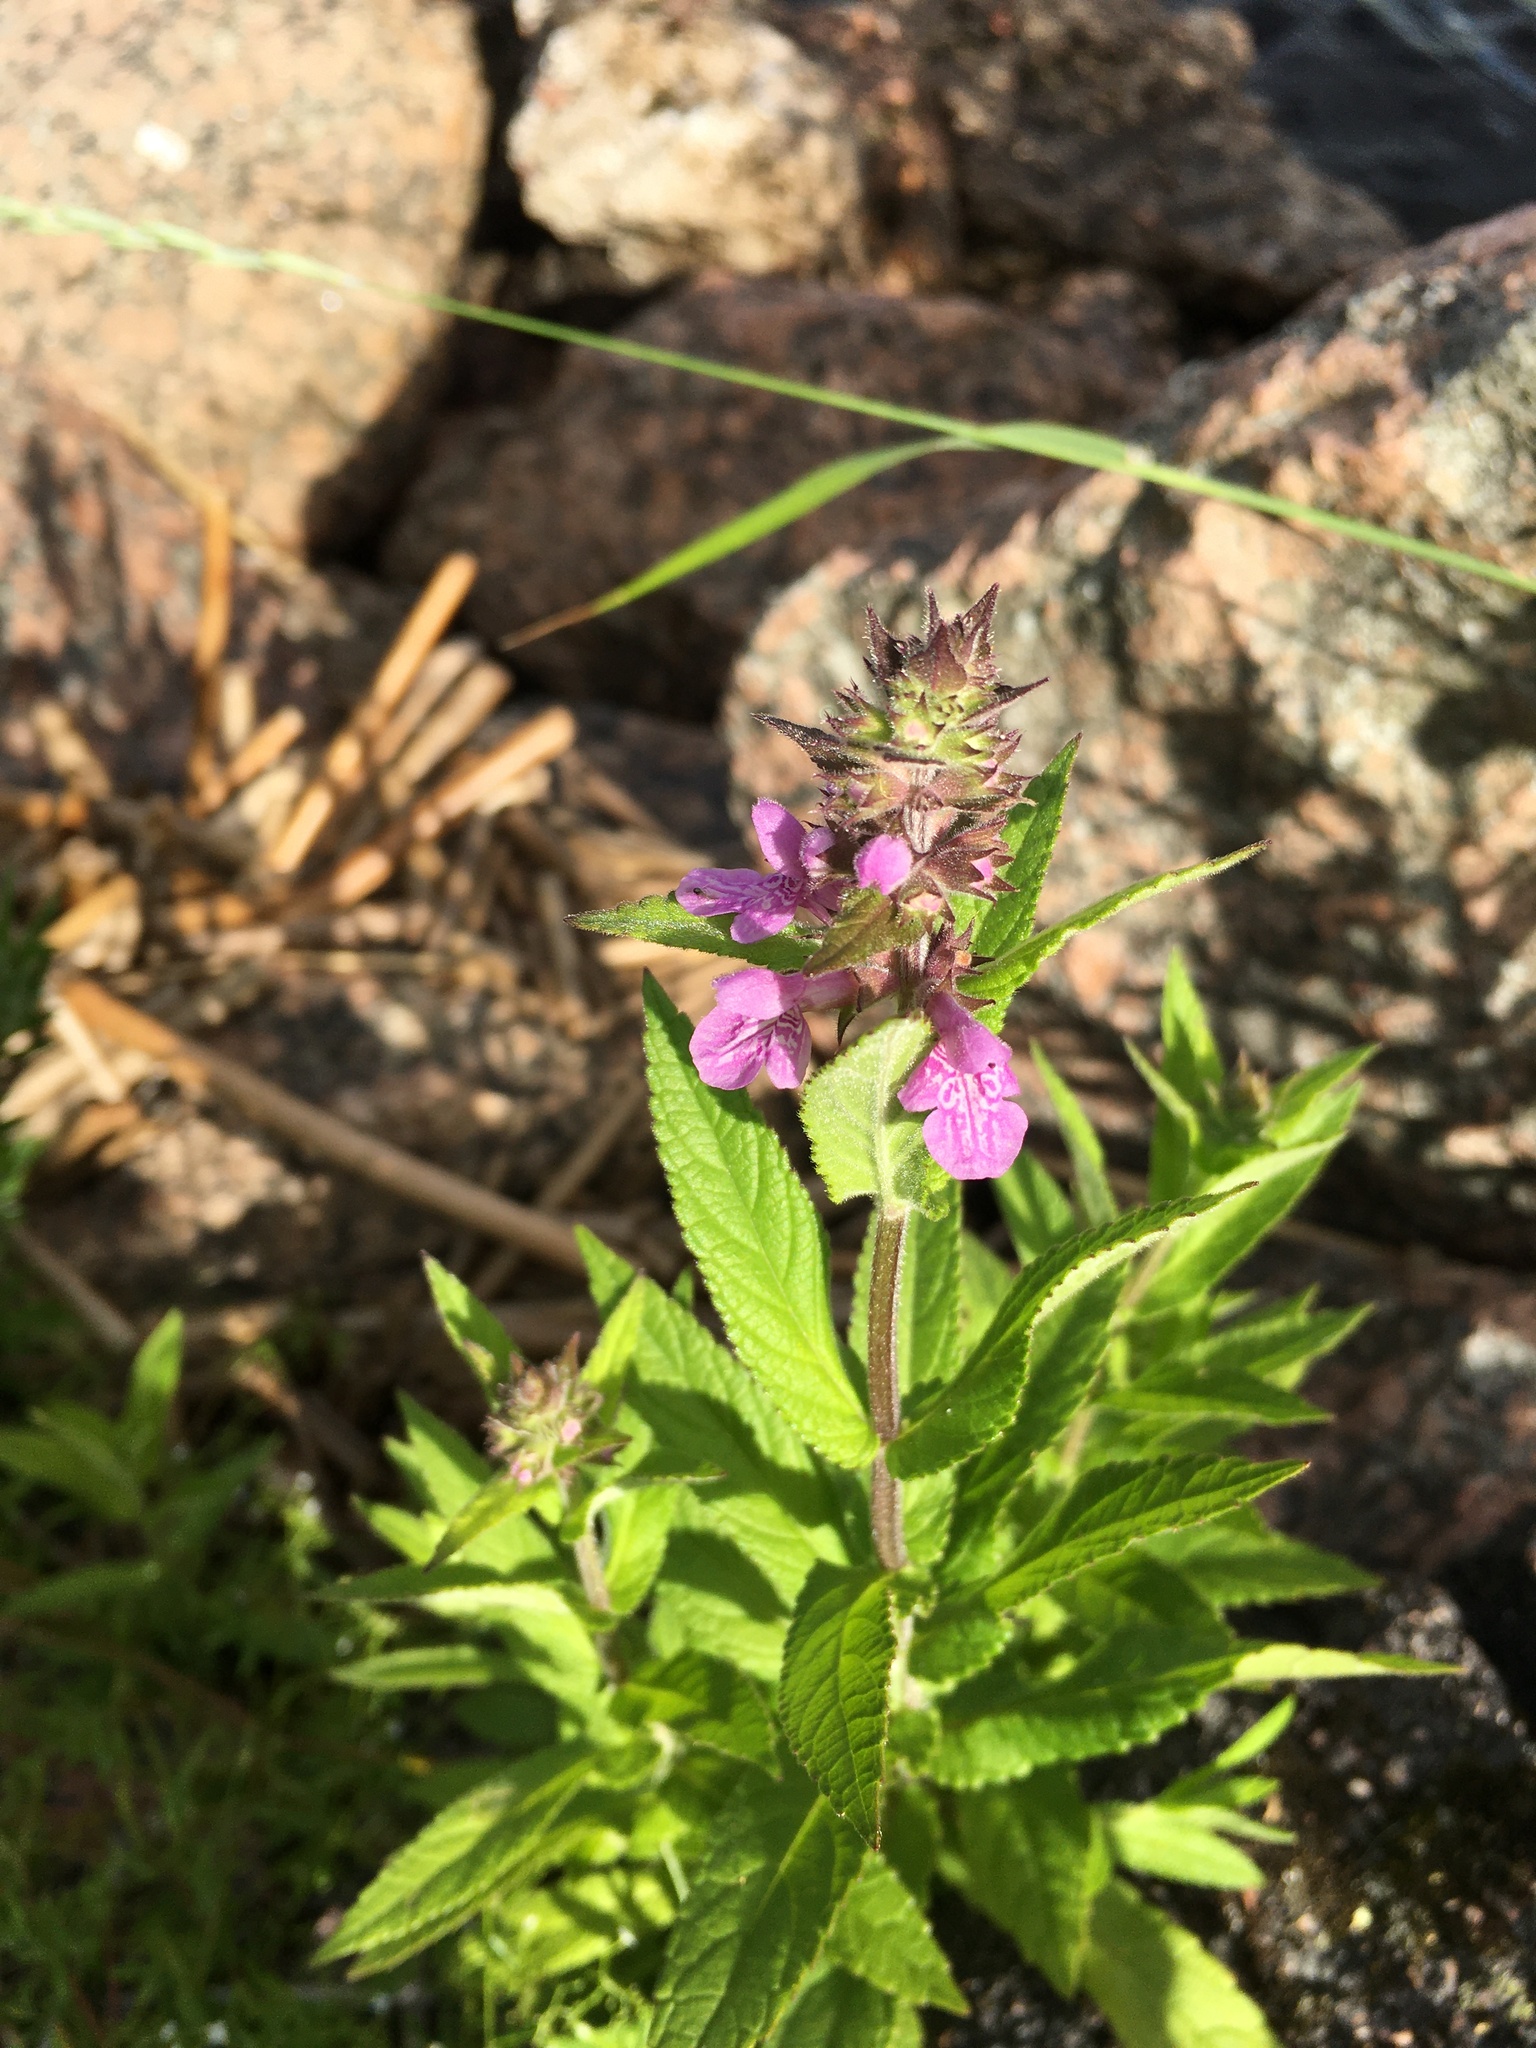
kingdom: Plantae
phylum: Tracheophyta
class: Magnoliopsida
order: Lamiales
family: Lamiaceae
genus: Stachys
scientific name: Stachys palustris
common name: Marsh woundwort
